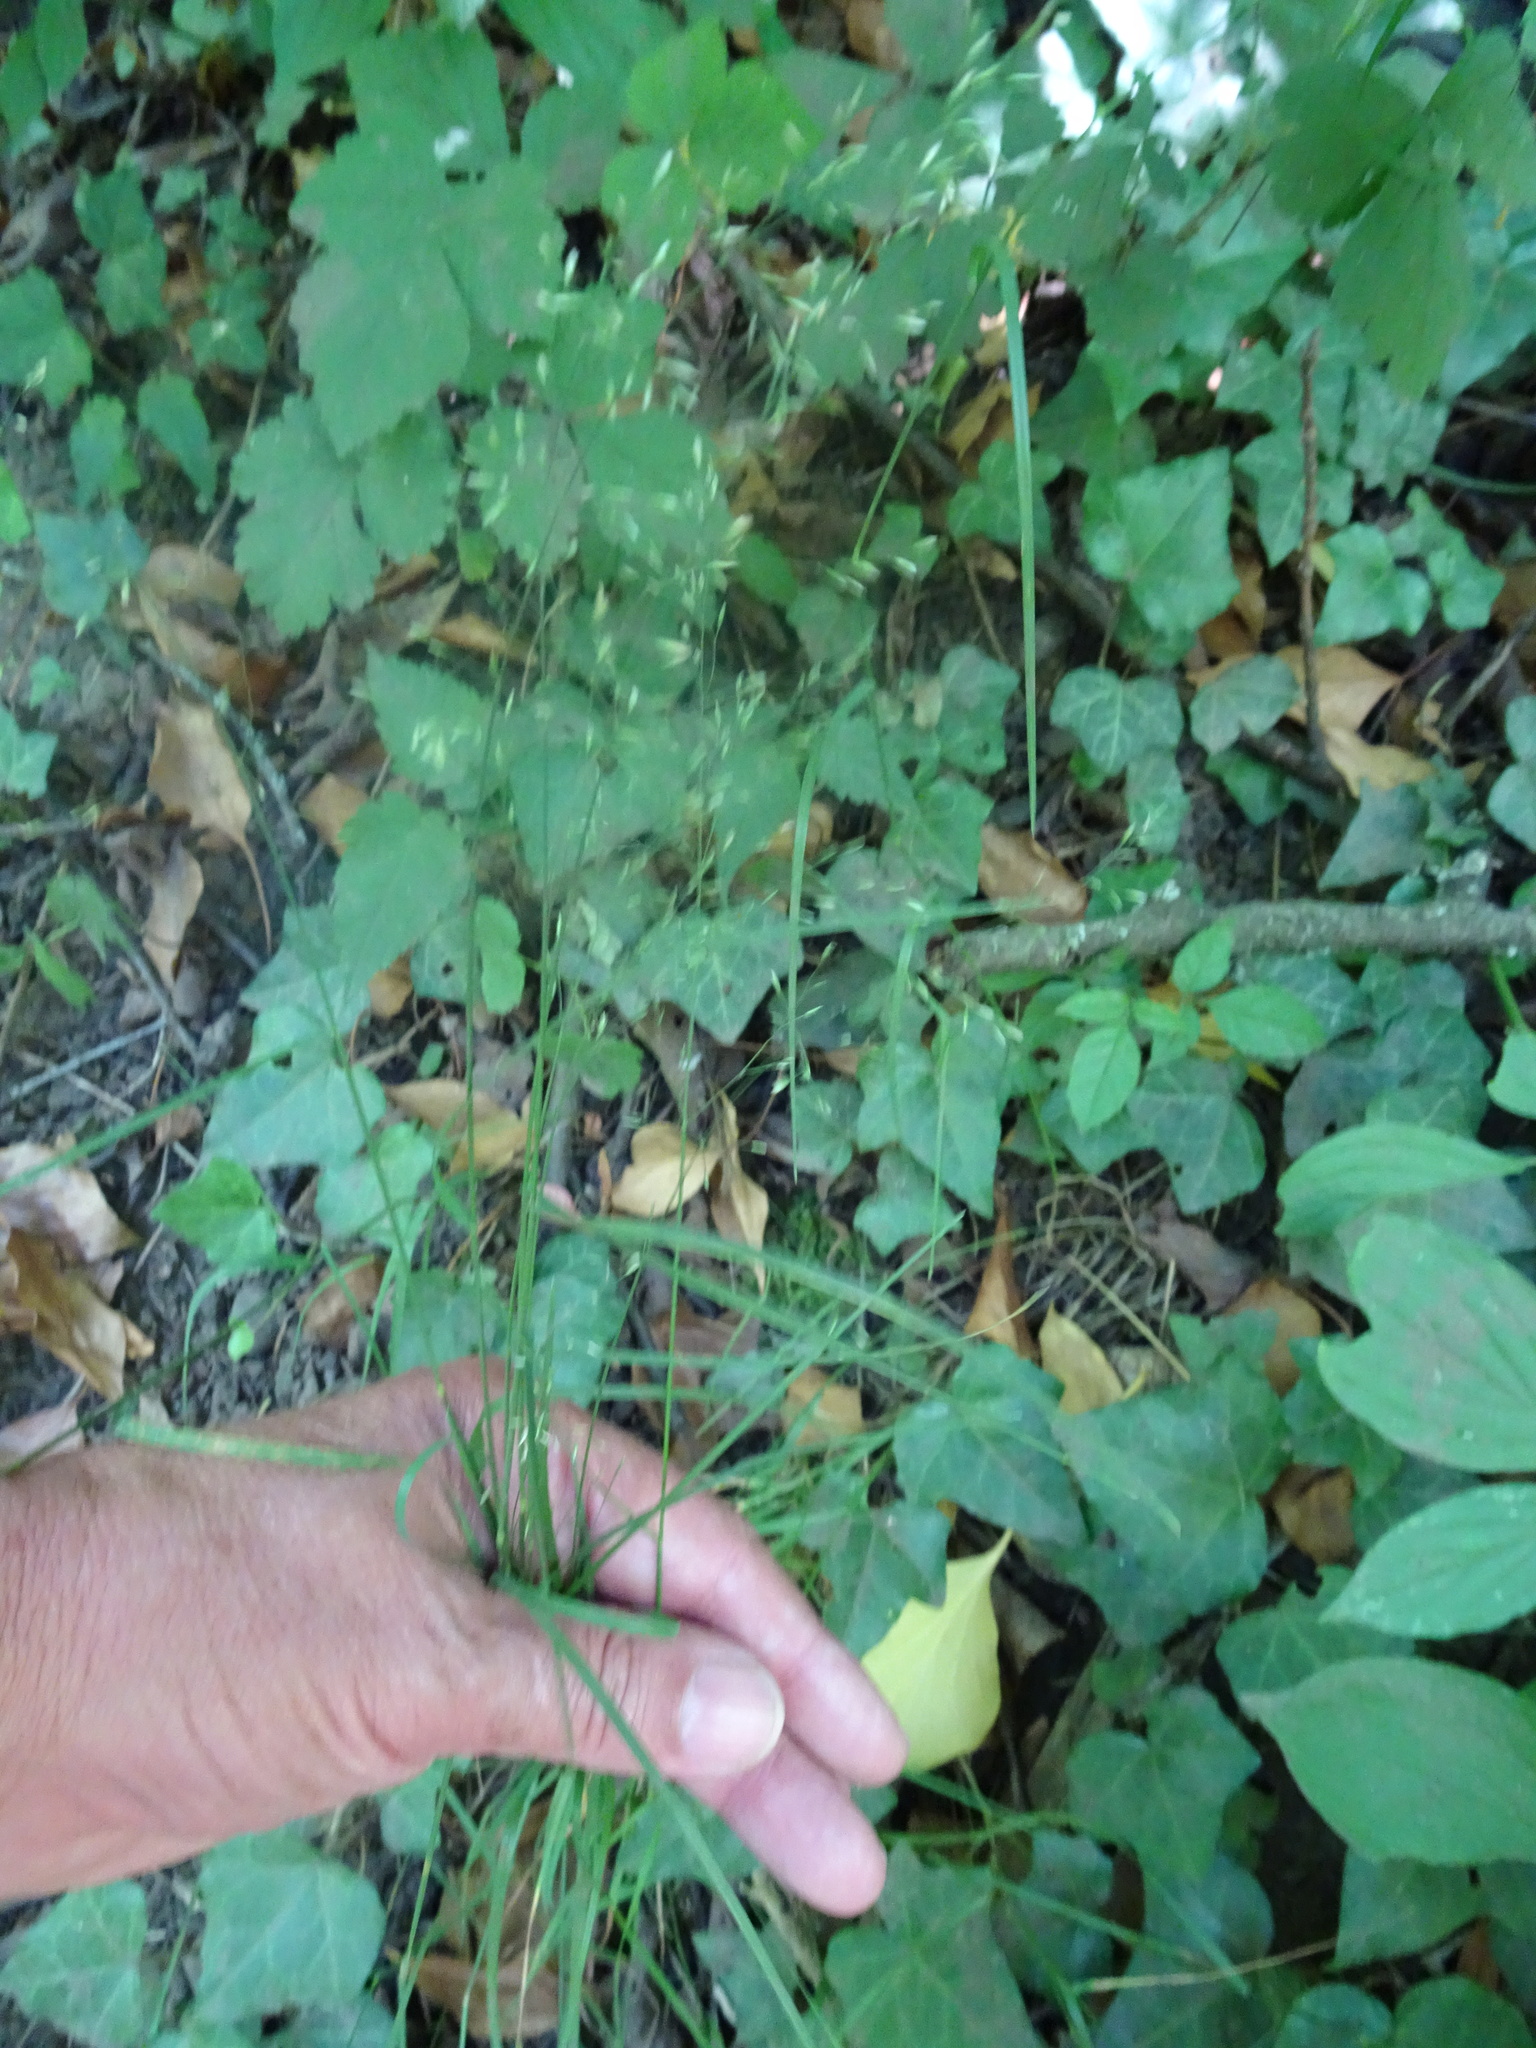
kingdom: Plantae
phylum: Tracheophyta
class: Liliopsida
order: Poales
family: Poaceae
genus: Poa
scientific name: Poa nemoralis
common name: Wood bluegrass
